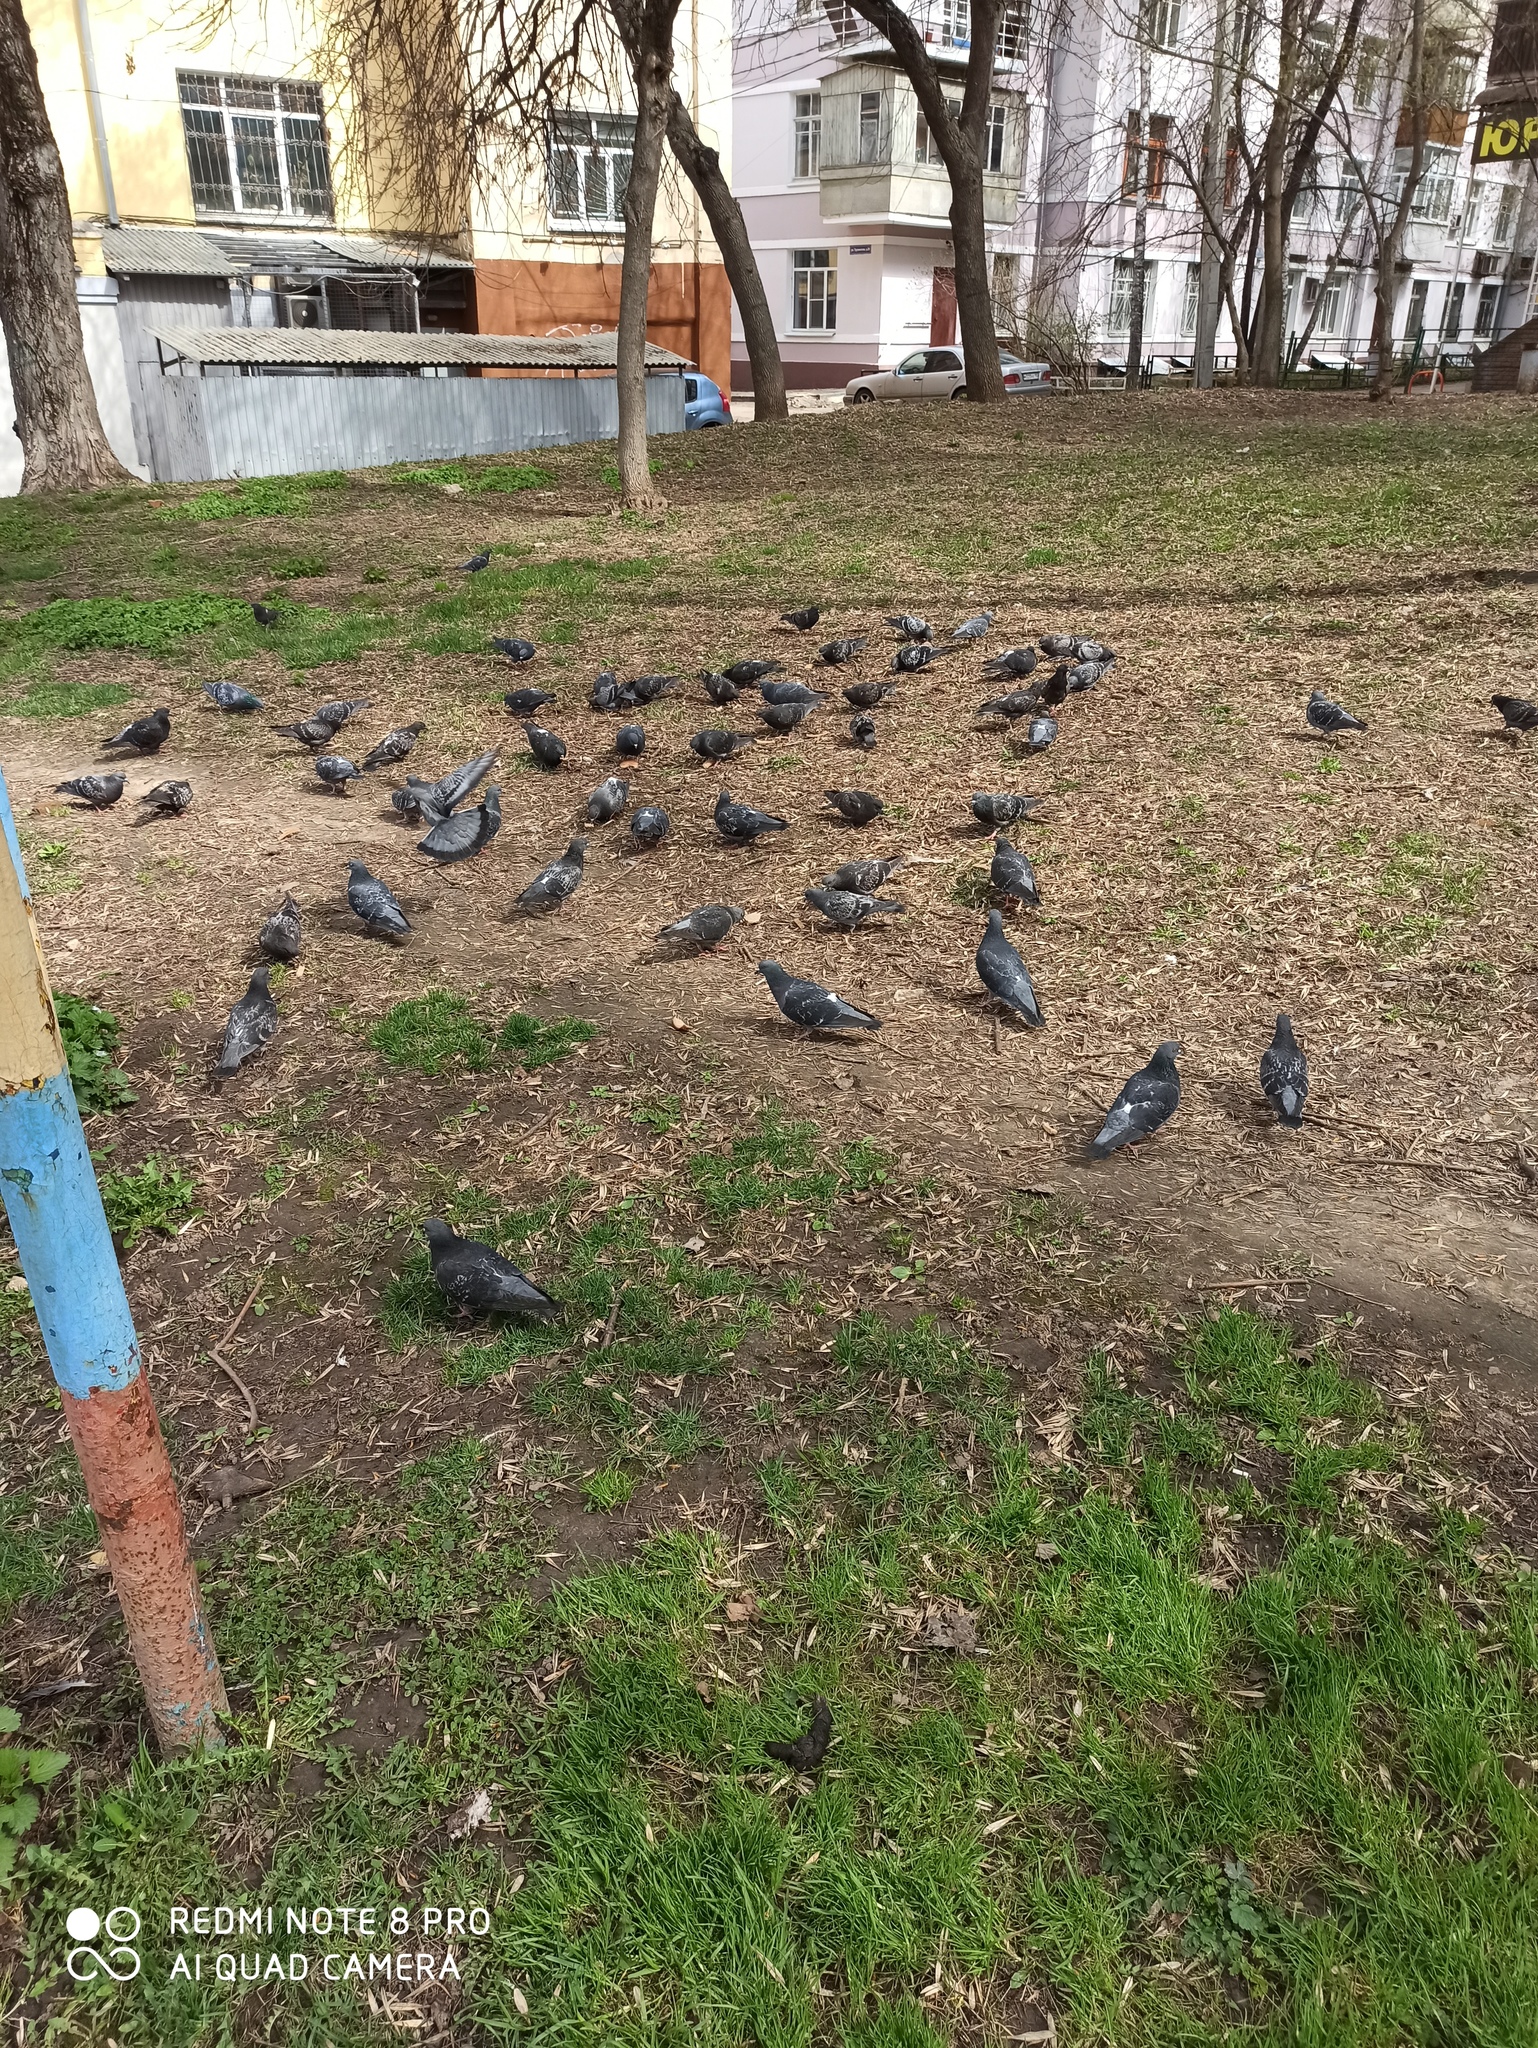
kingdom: Animalia
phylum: Chordata
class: Aves
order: Columbiformes
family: Columbidae
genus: Columba
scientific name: Columba livia
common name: Rock pigeon
